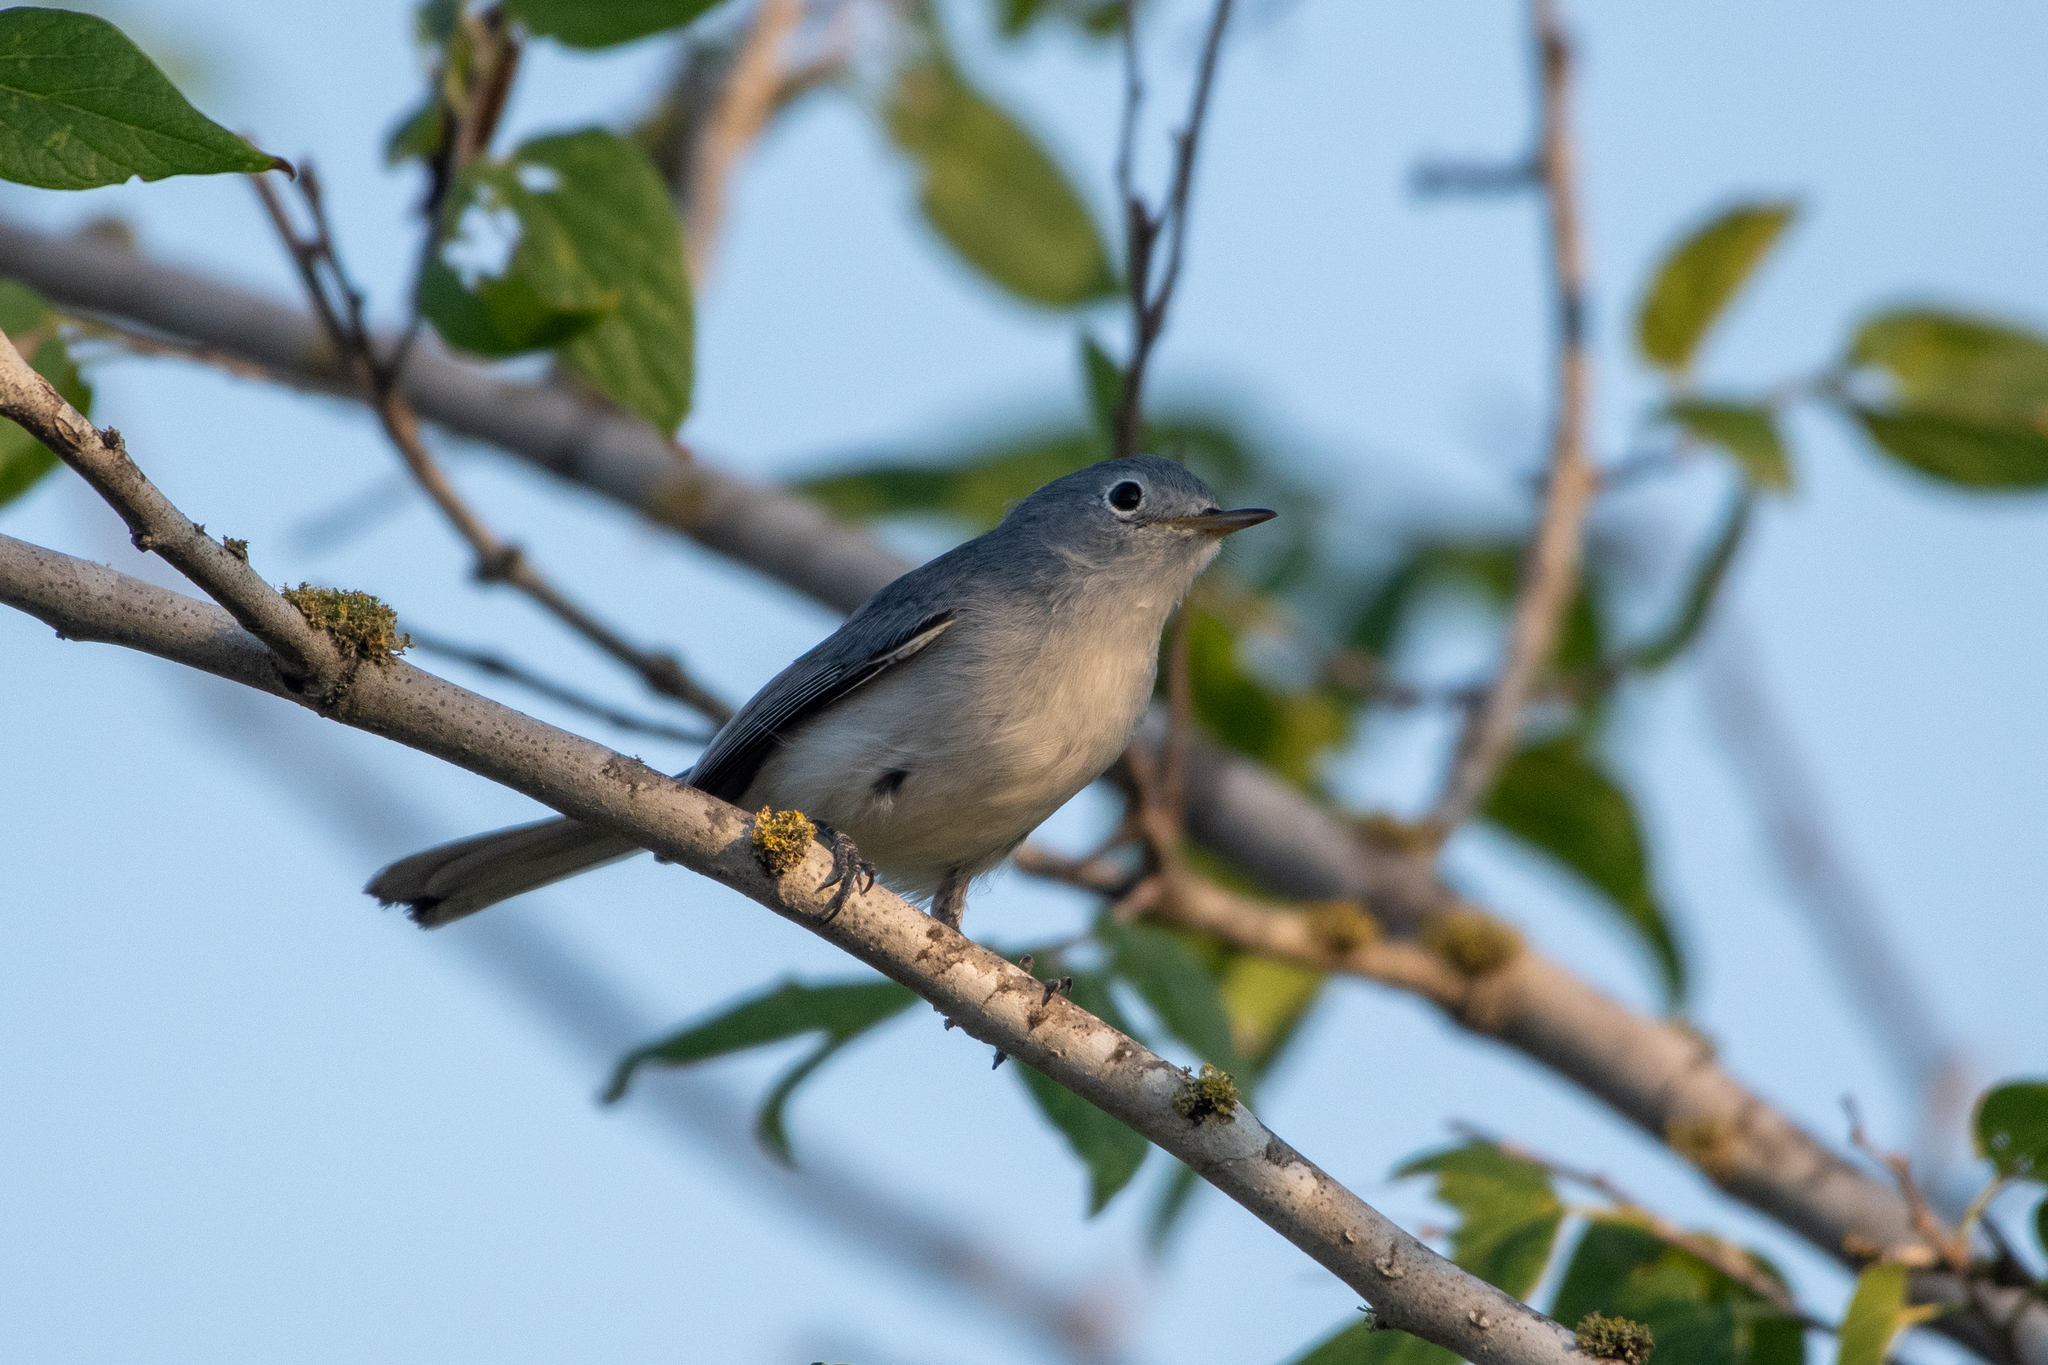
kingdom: Animalia
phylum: Chordata
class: Aves
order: Passeriformes
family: Polioptilidae
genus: Polioptila
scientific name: Polioptila caerulea
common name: Blue-gray gnatcatcher
